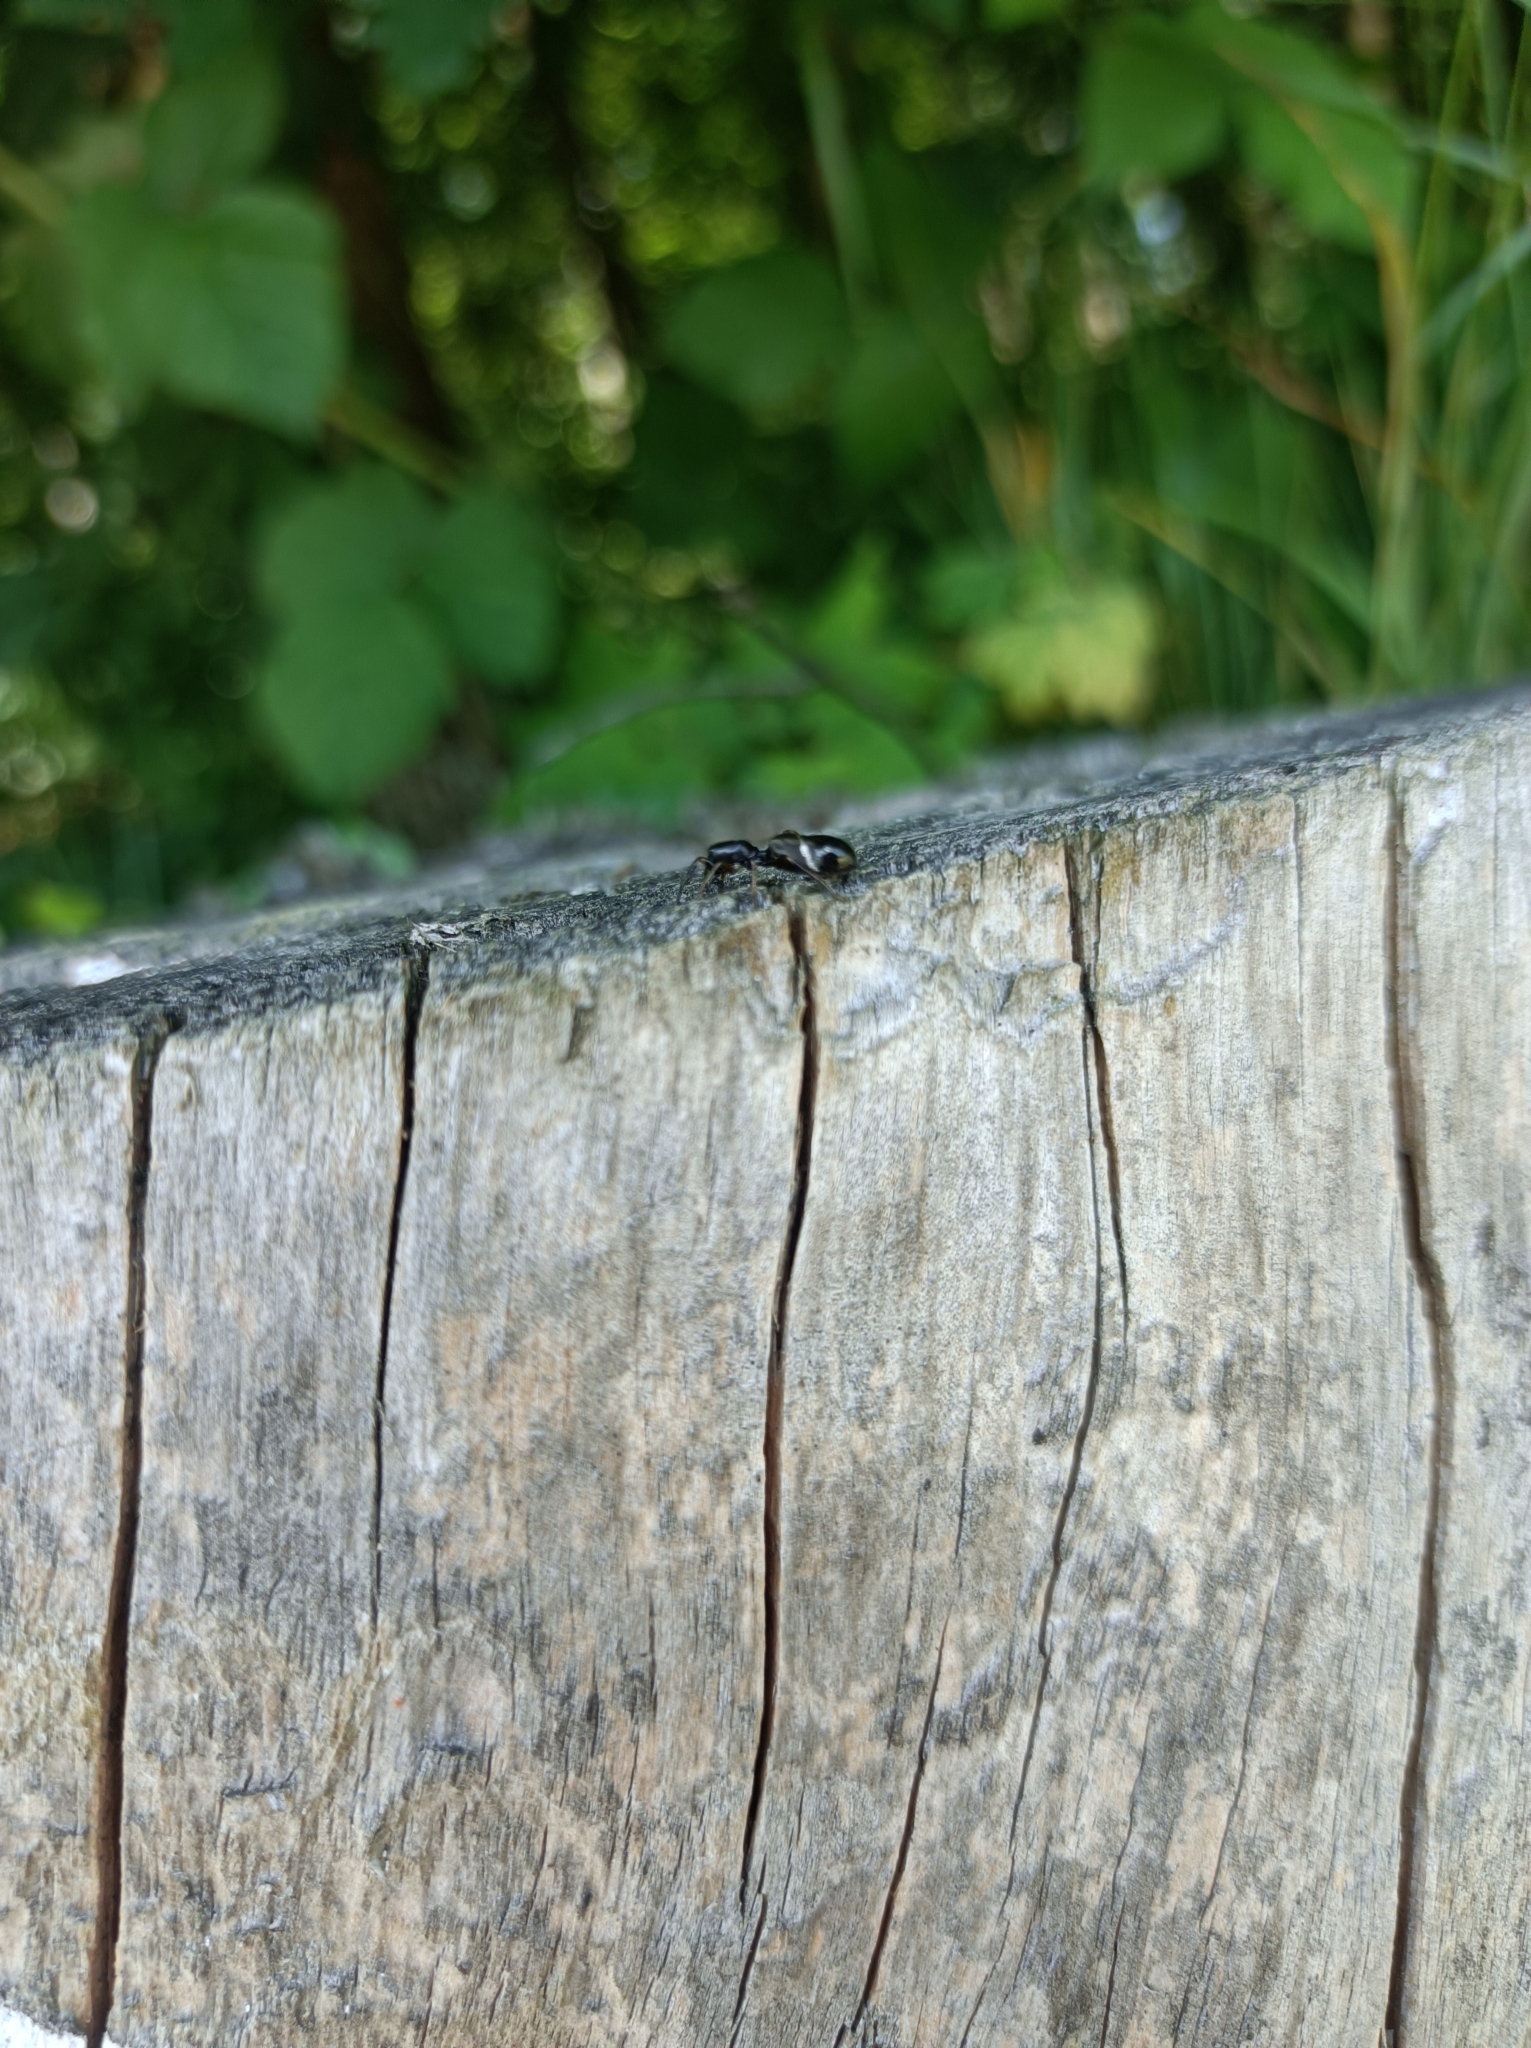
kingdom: Animalia
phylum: Arthropoda
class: Arachnida
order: Araneae
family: Salticidae
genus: Leptorchestes
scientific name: Leptorchestes berolinensis
